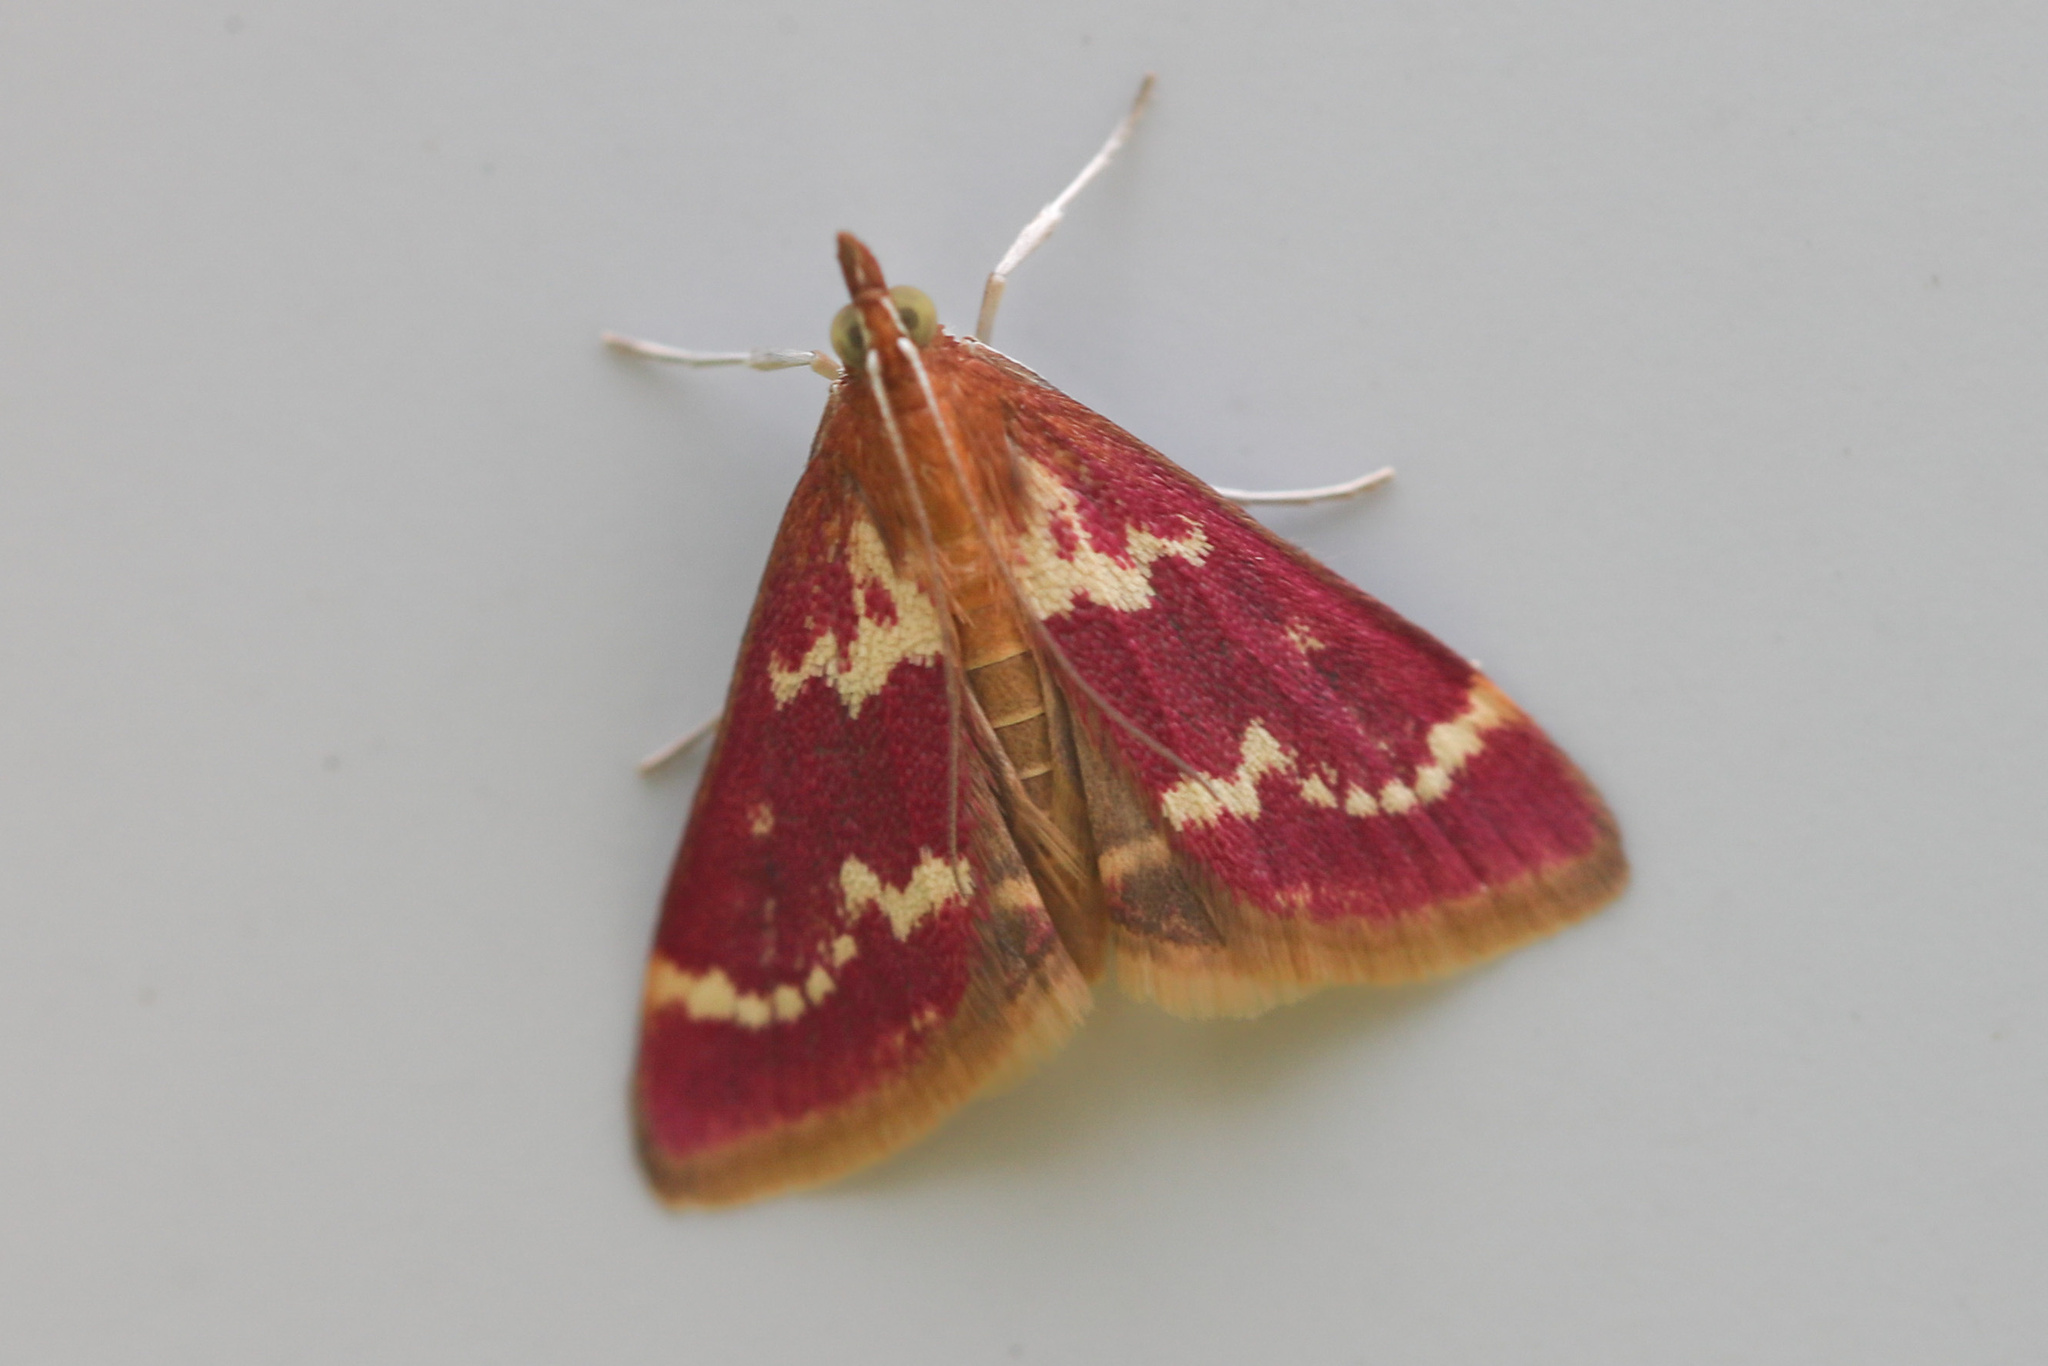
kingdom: Animalia
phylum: Arthropoda
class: Insecta
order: Lepidoptera
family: Crambidae
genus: Pyrausta
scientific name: Pyrausta signatalis
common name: Raspberry pyrausta moth
